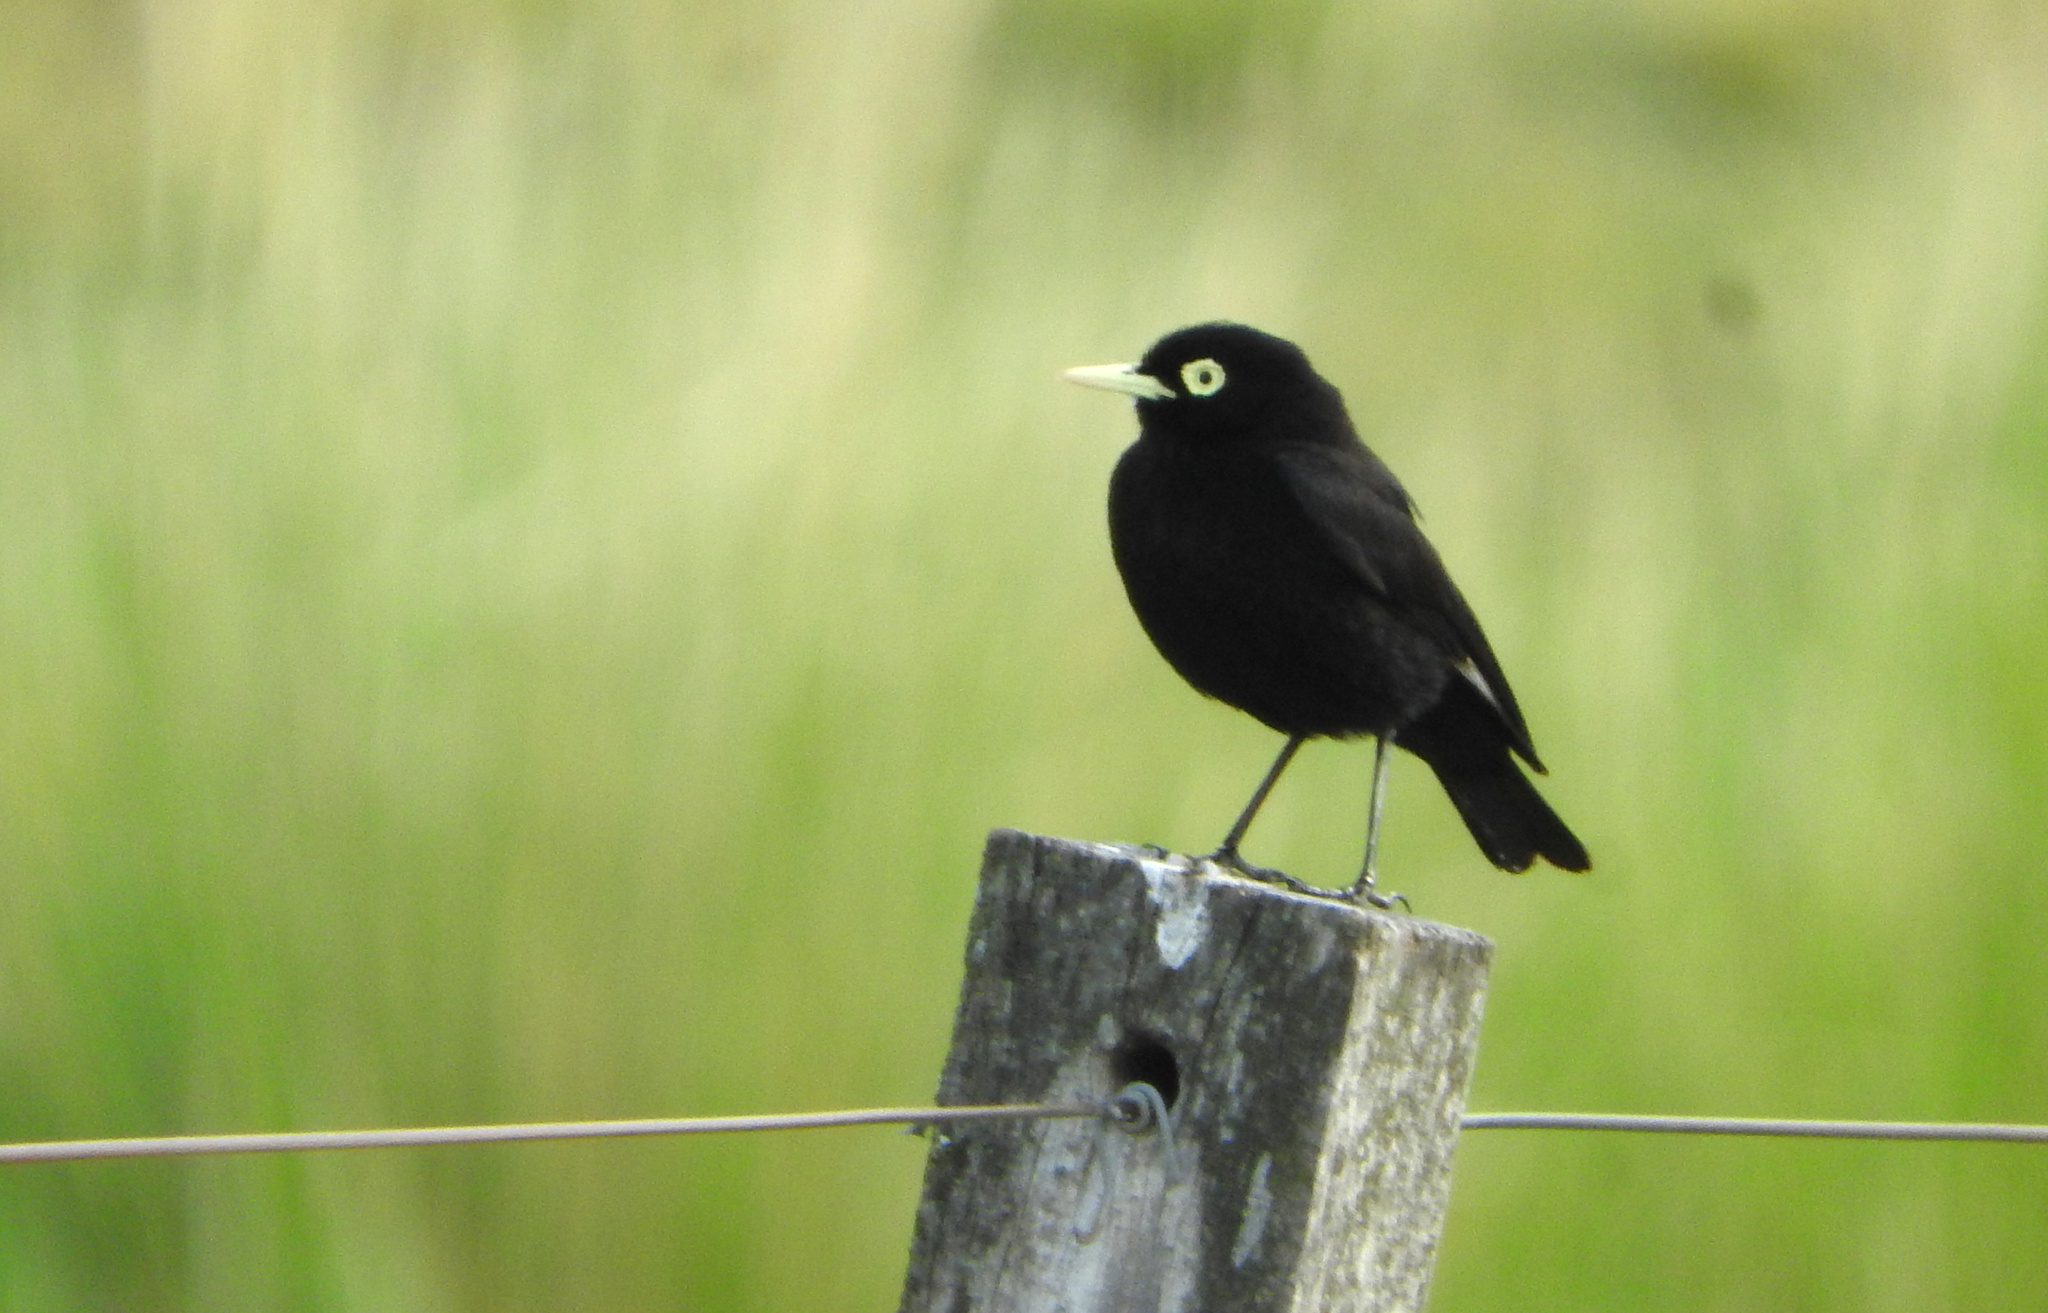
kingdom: Animalia
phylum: Chordata
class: Aves
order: Passeriformes
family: Tyrannidae
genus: Hymenops
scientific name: Hymenops perspicillatus
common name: Spectacled tyrant
